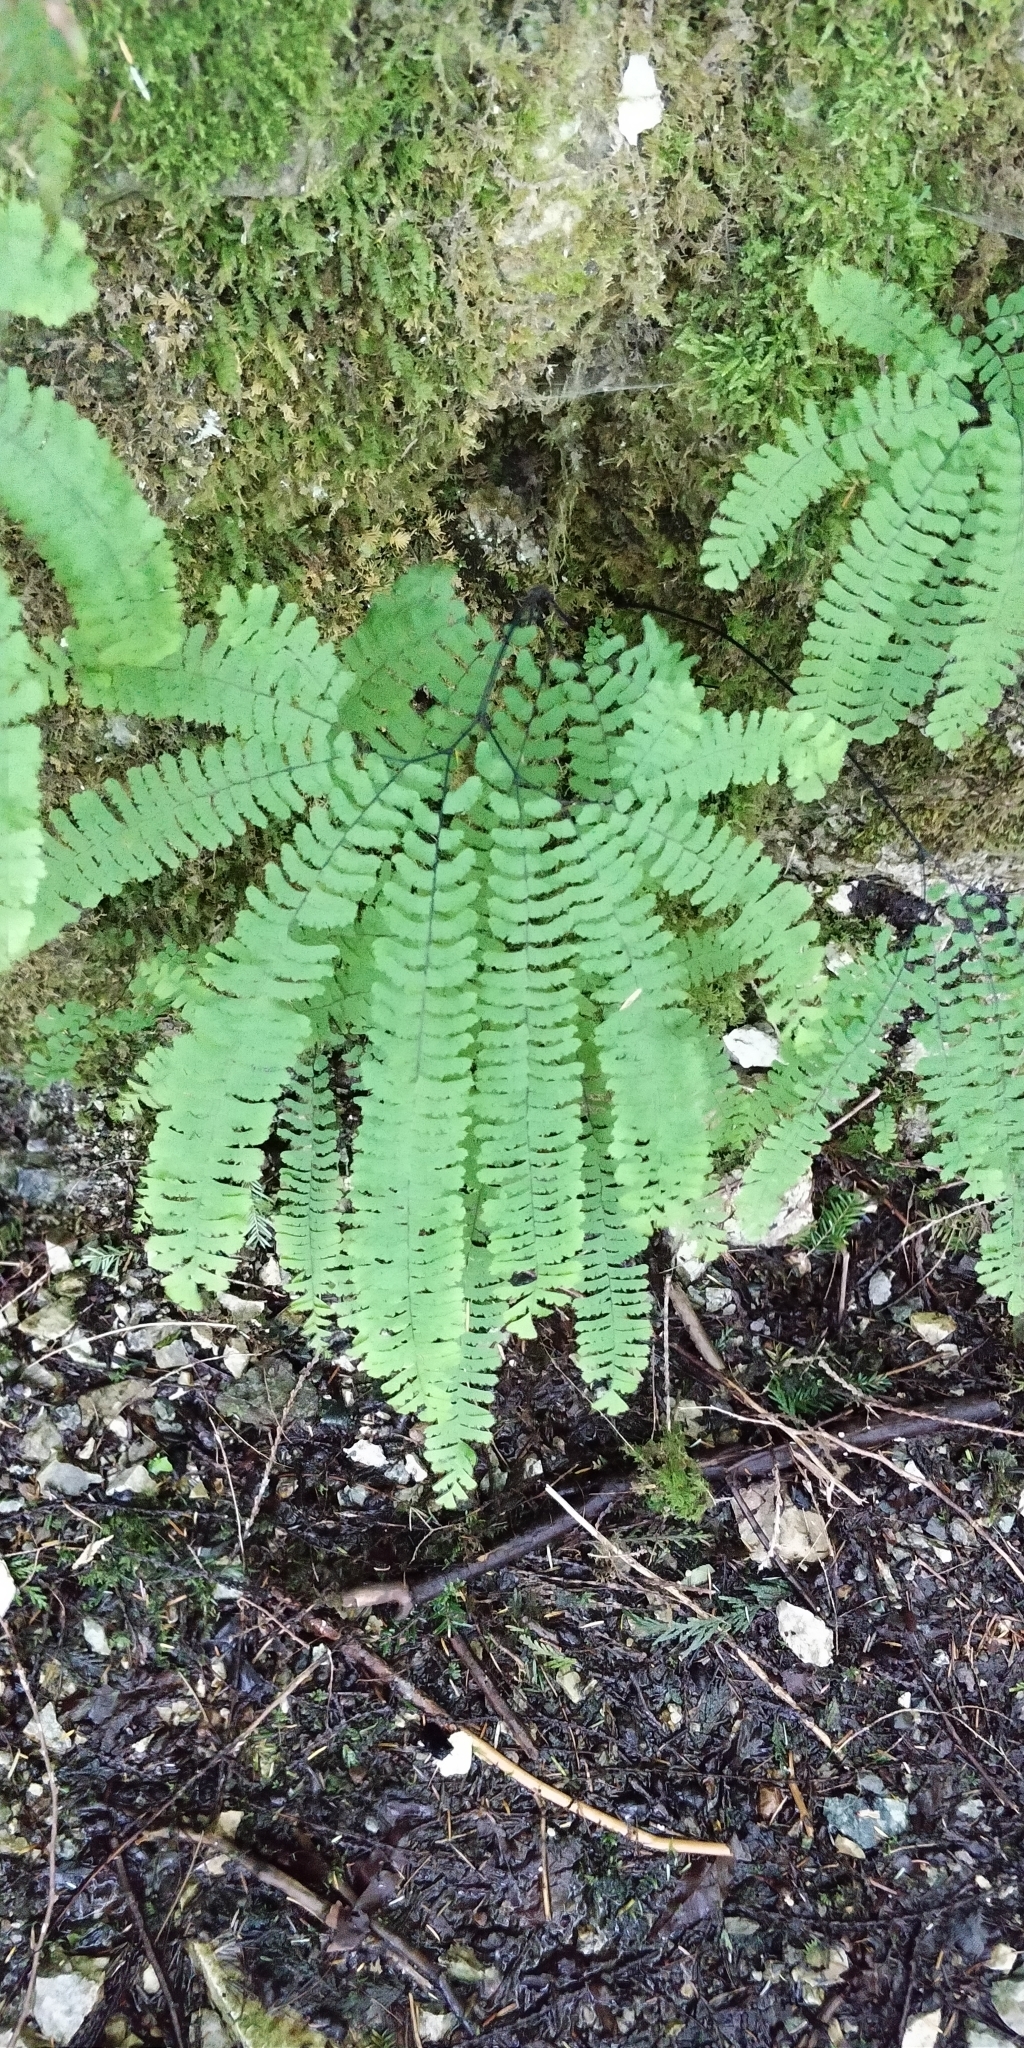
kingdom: Plantae
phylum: Tracheophyta
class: Polypodiopsida
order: Polypodiales
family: Pteridaceae
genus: Adiantum
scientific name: Adiantum aleuticum
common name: Aleutian maidenhair fern
